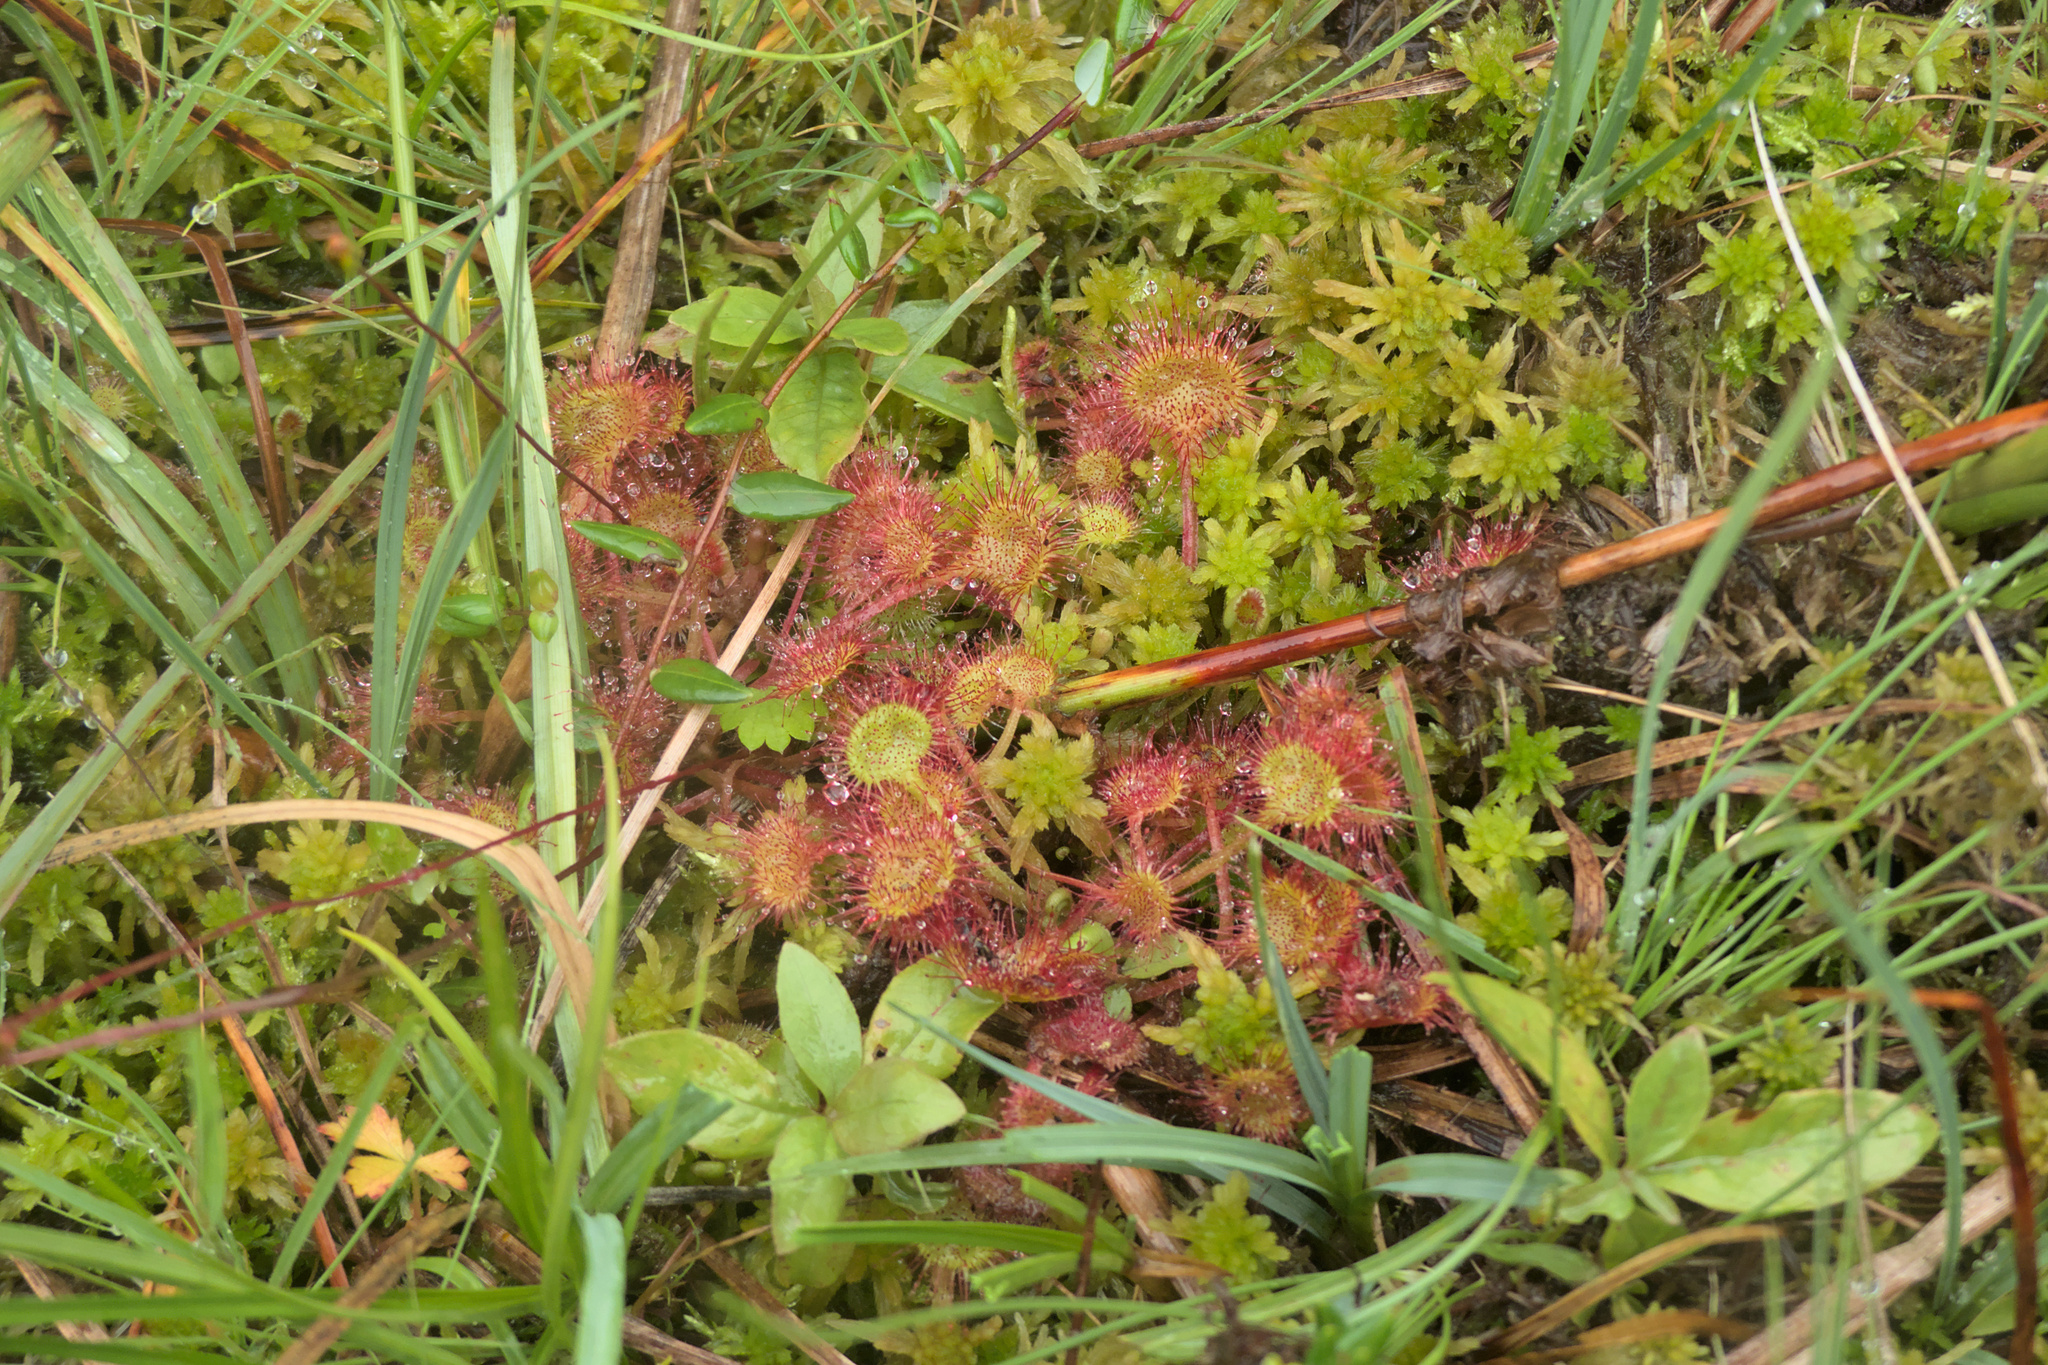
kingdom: Plantae
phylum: Tracheophyta
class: Magnoliopsida
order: Caryophyllales
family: Droseraceae
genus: Drosera
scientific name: Drosera rotundifolia
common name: Round-leaved sundew
